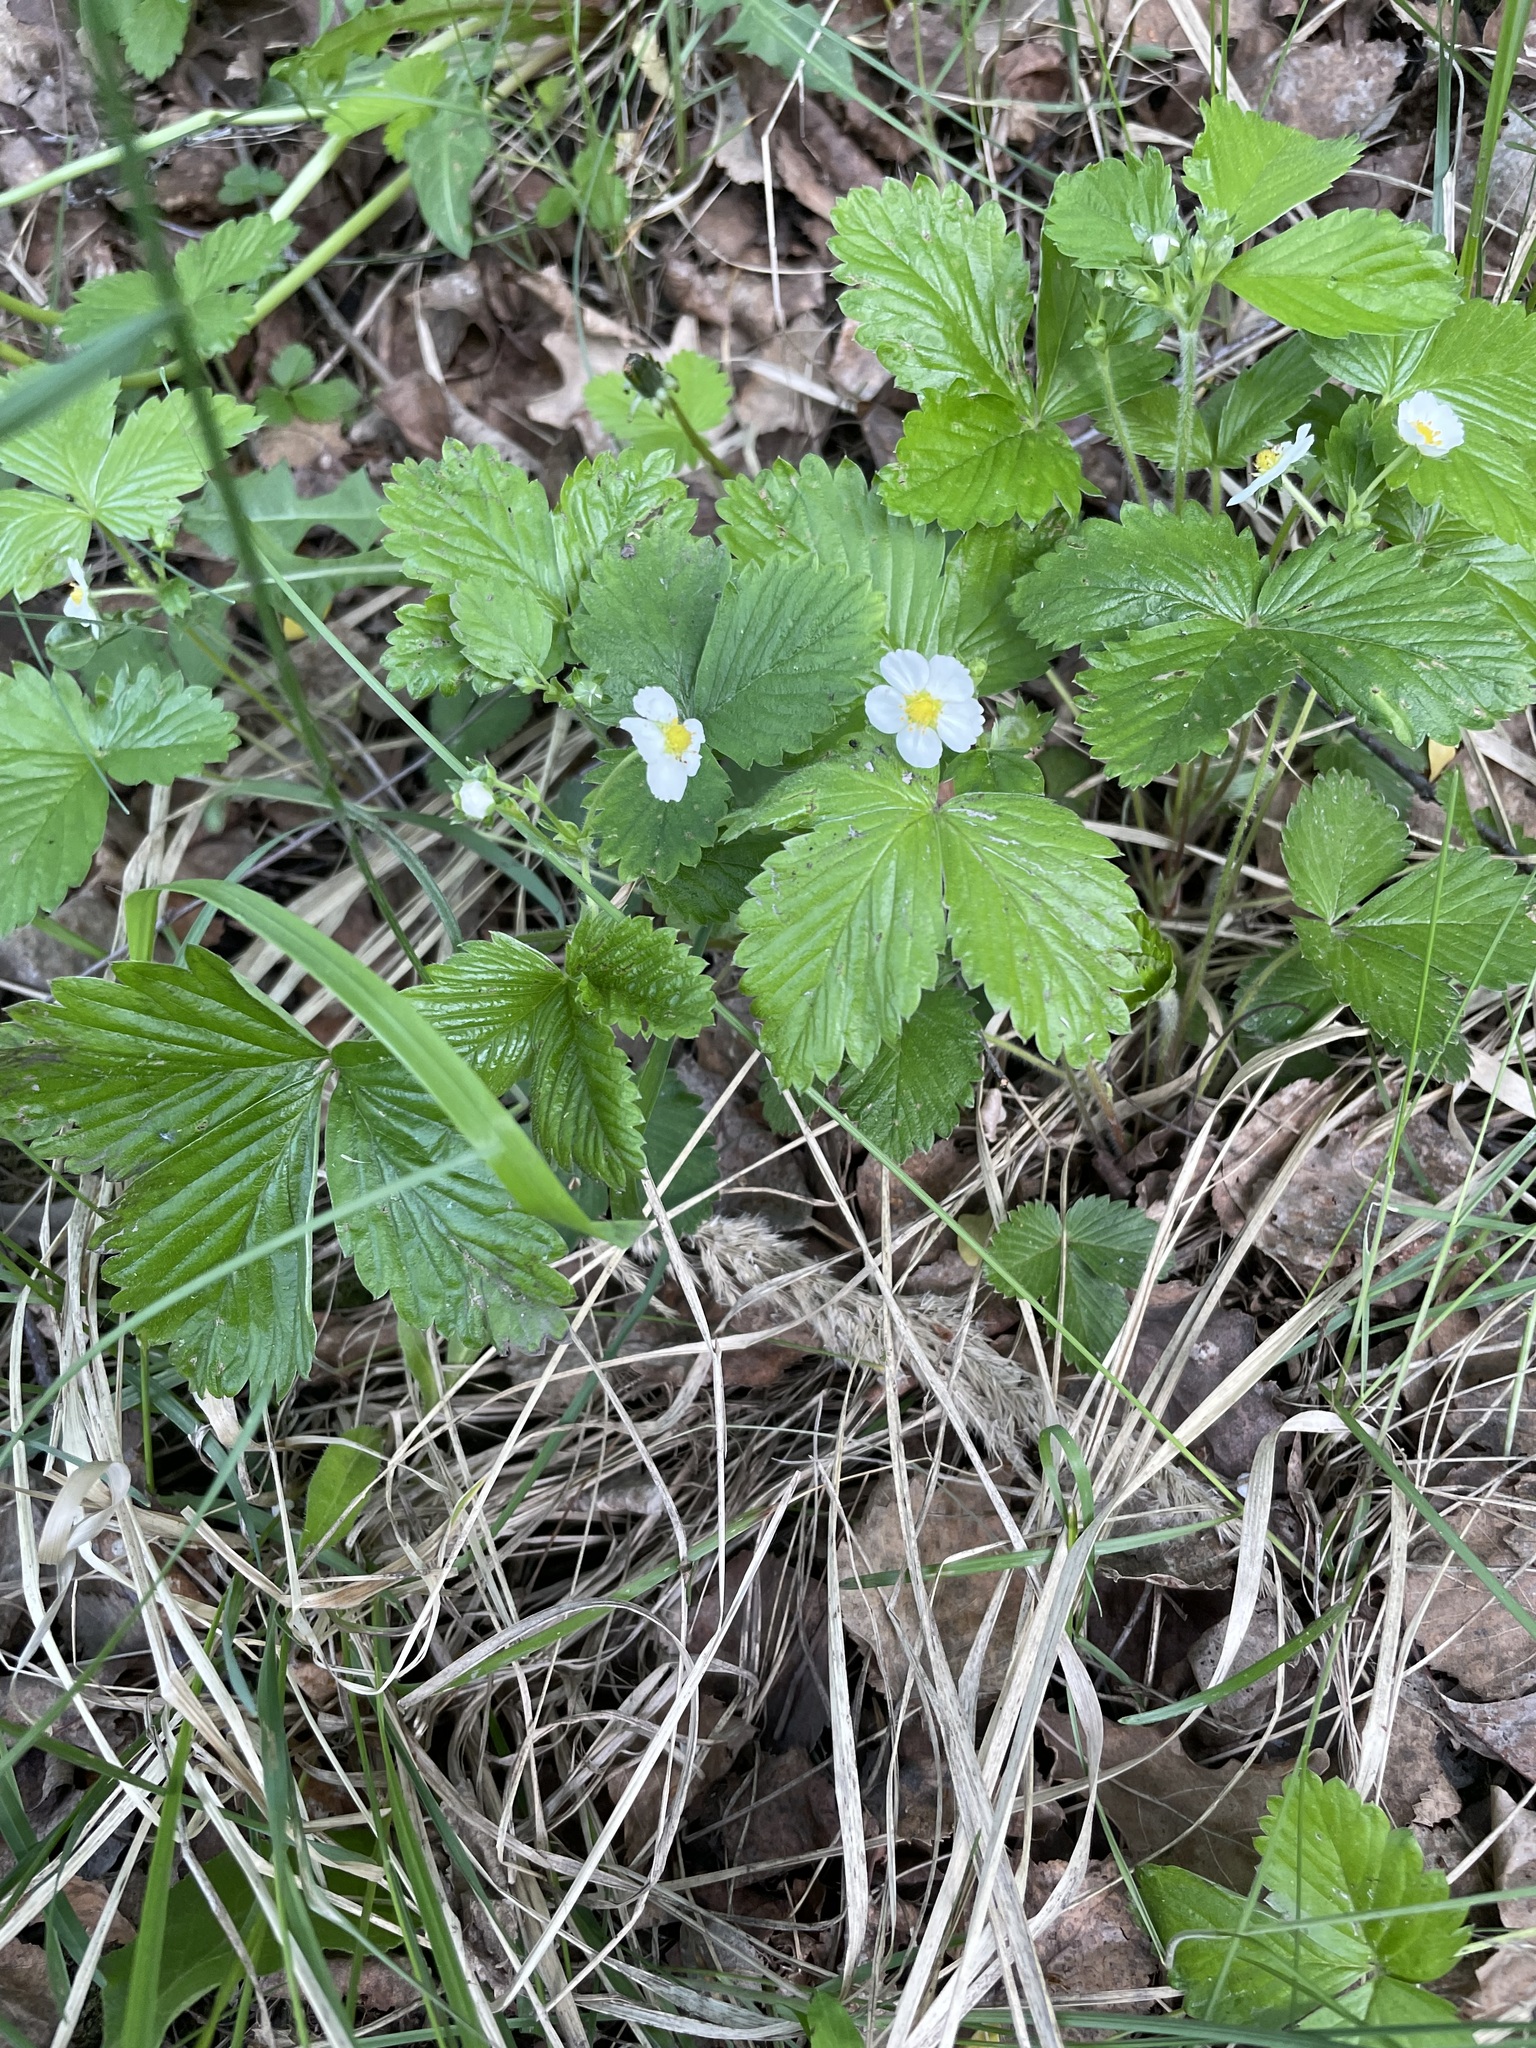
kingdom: Plantae
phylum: Tracheophyta
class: Magnoliopsida
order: Rosales
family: Rosaceae
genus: Fragaria
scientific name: Fragaria vesca
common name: Wild strawberry
